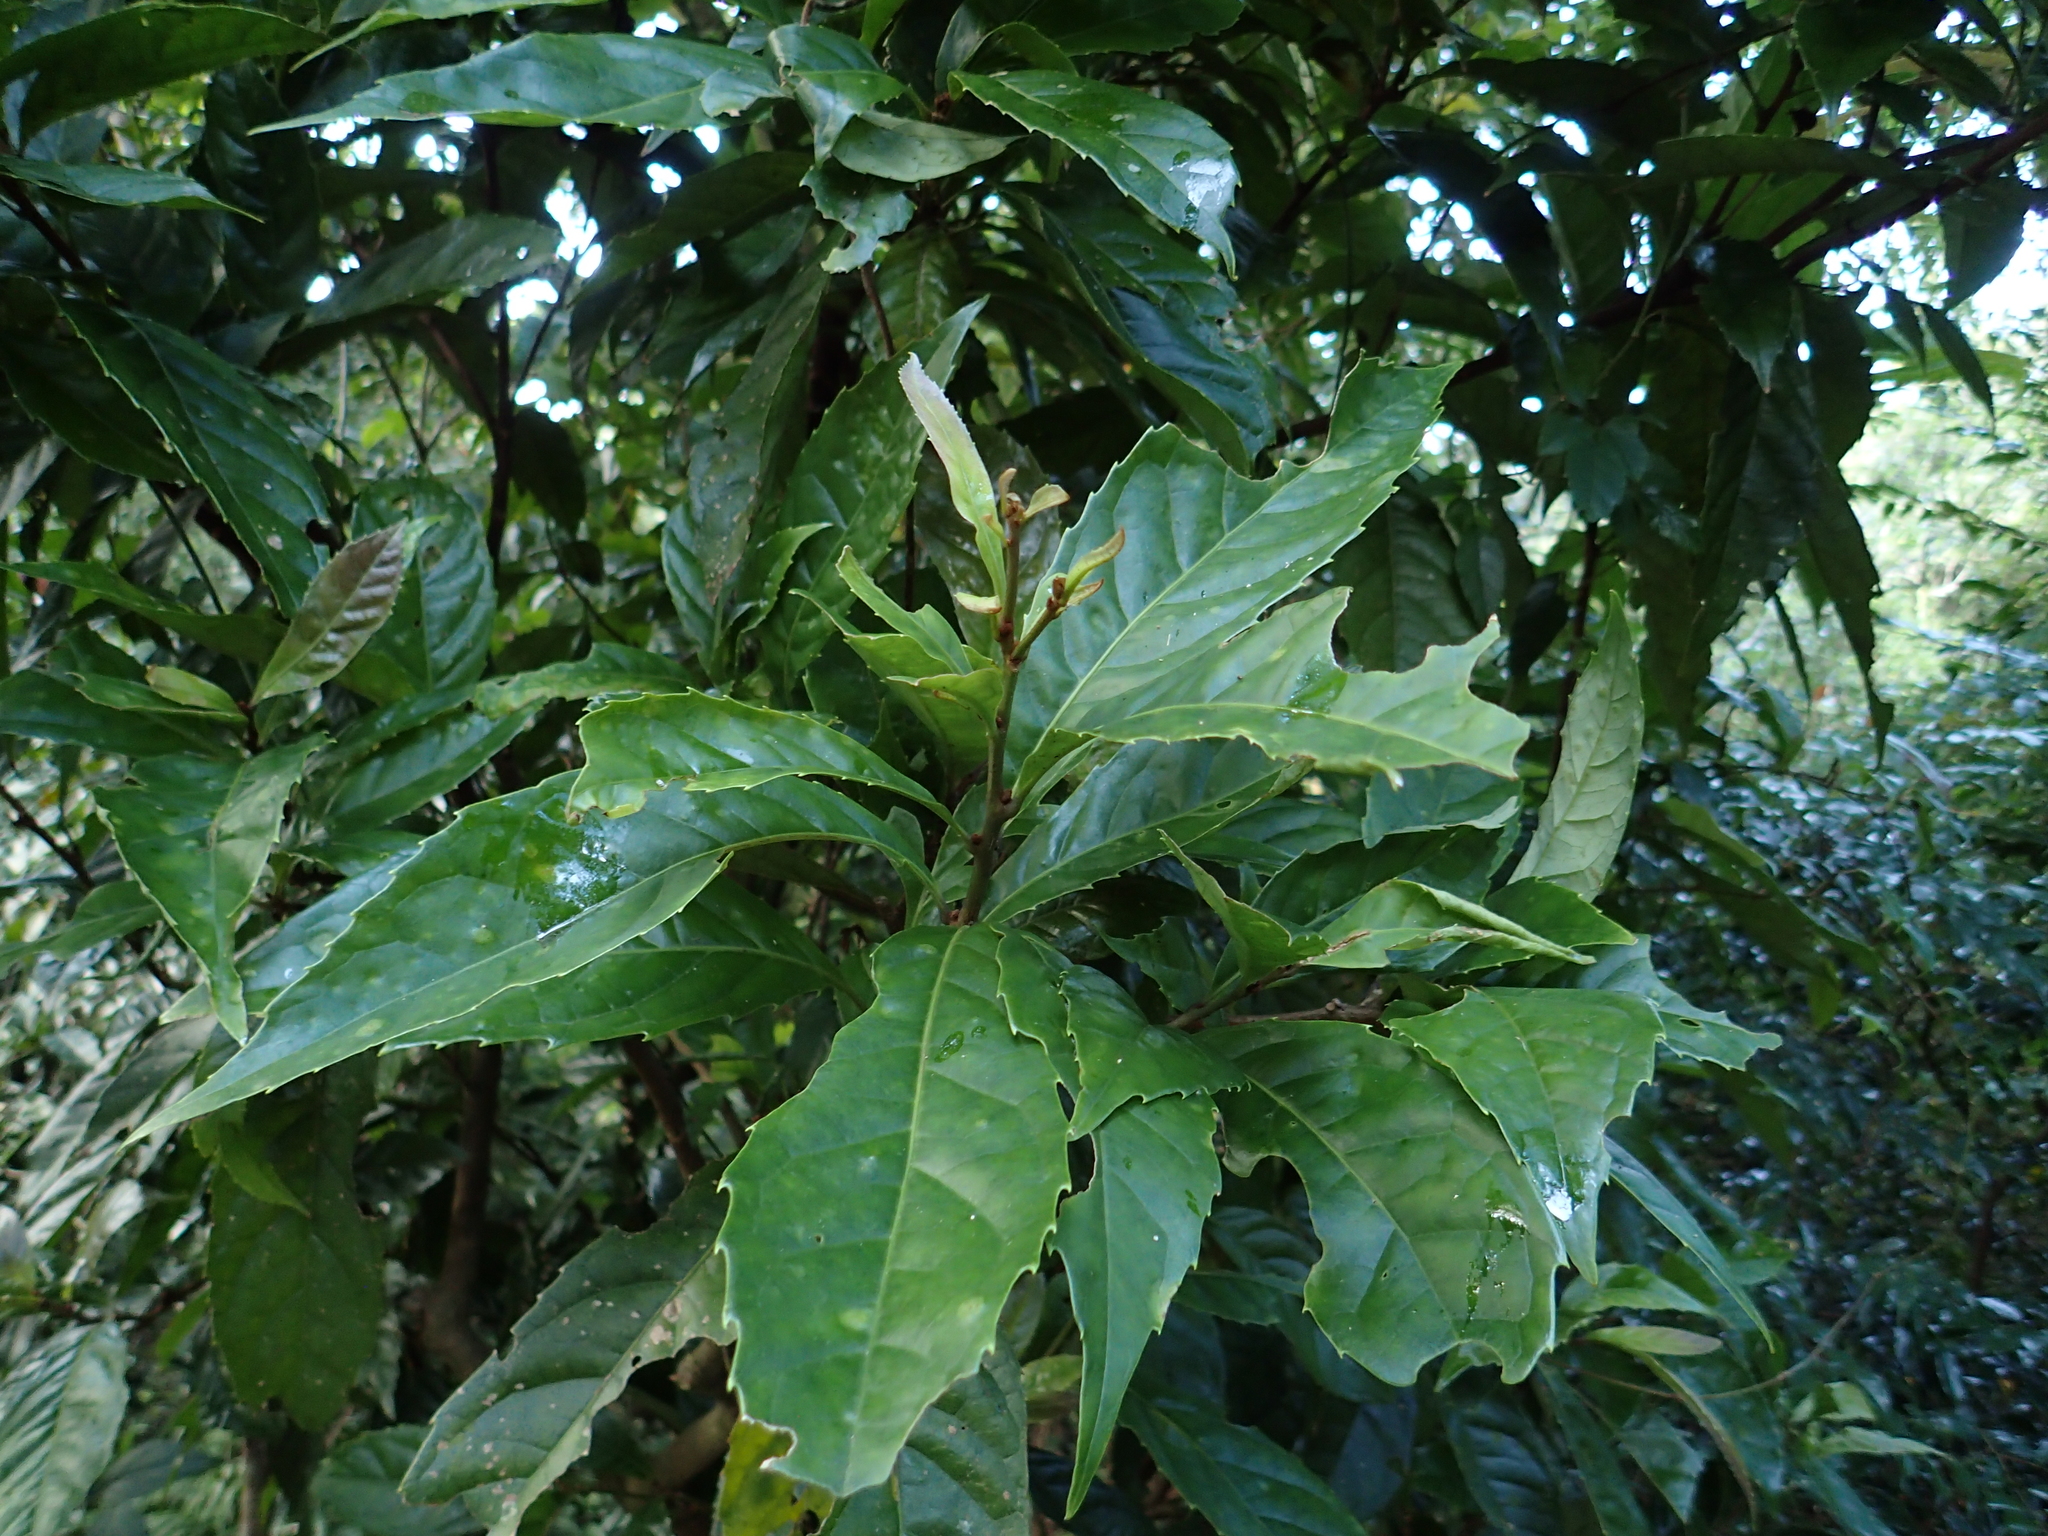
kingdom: Plantae
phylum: Tracheophyta
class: Magnoliopsida
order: Proteales
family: Proteaceae
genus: Helicia
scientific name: Helicia formosana
